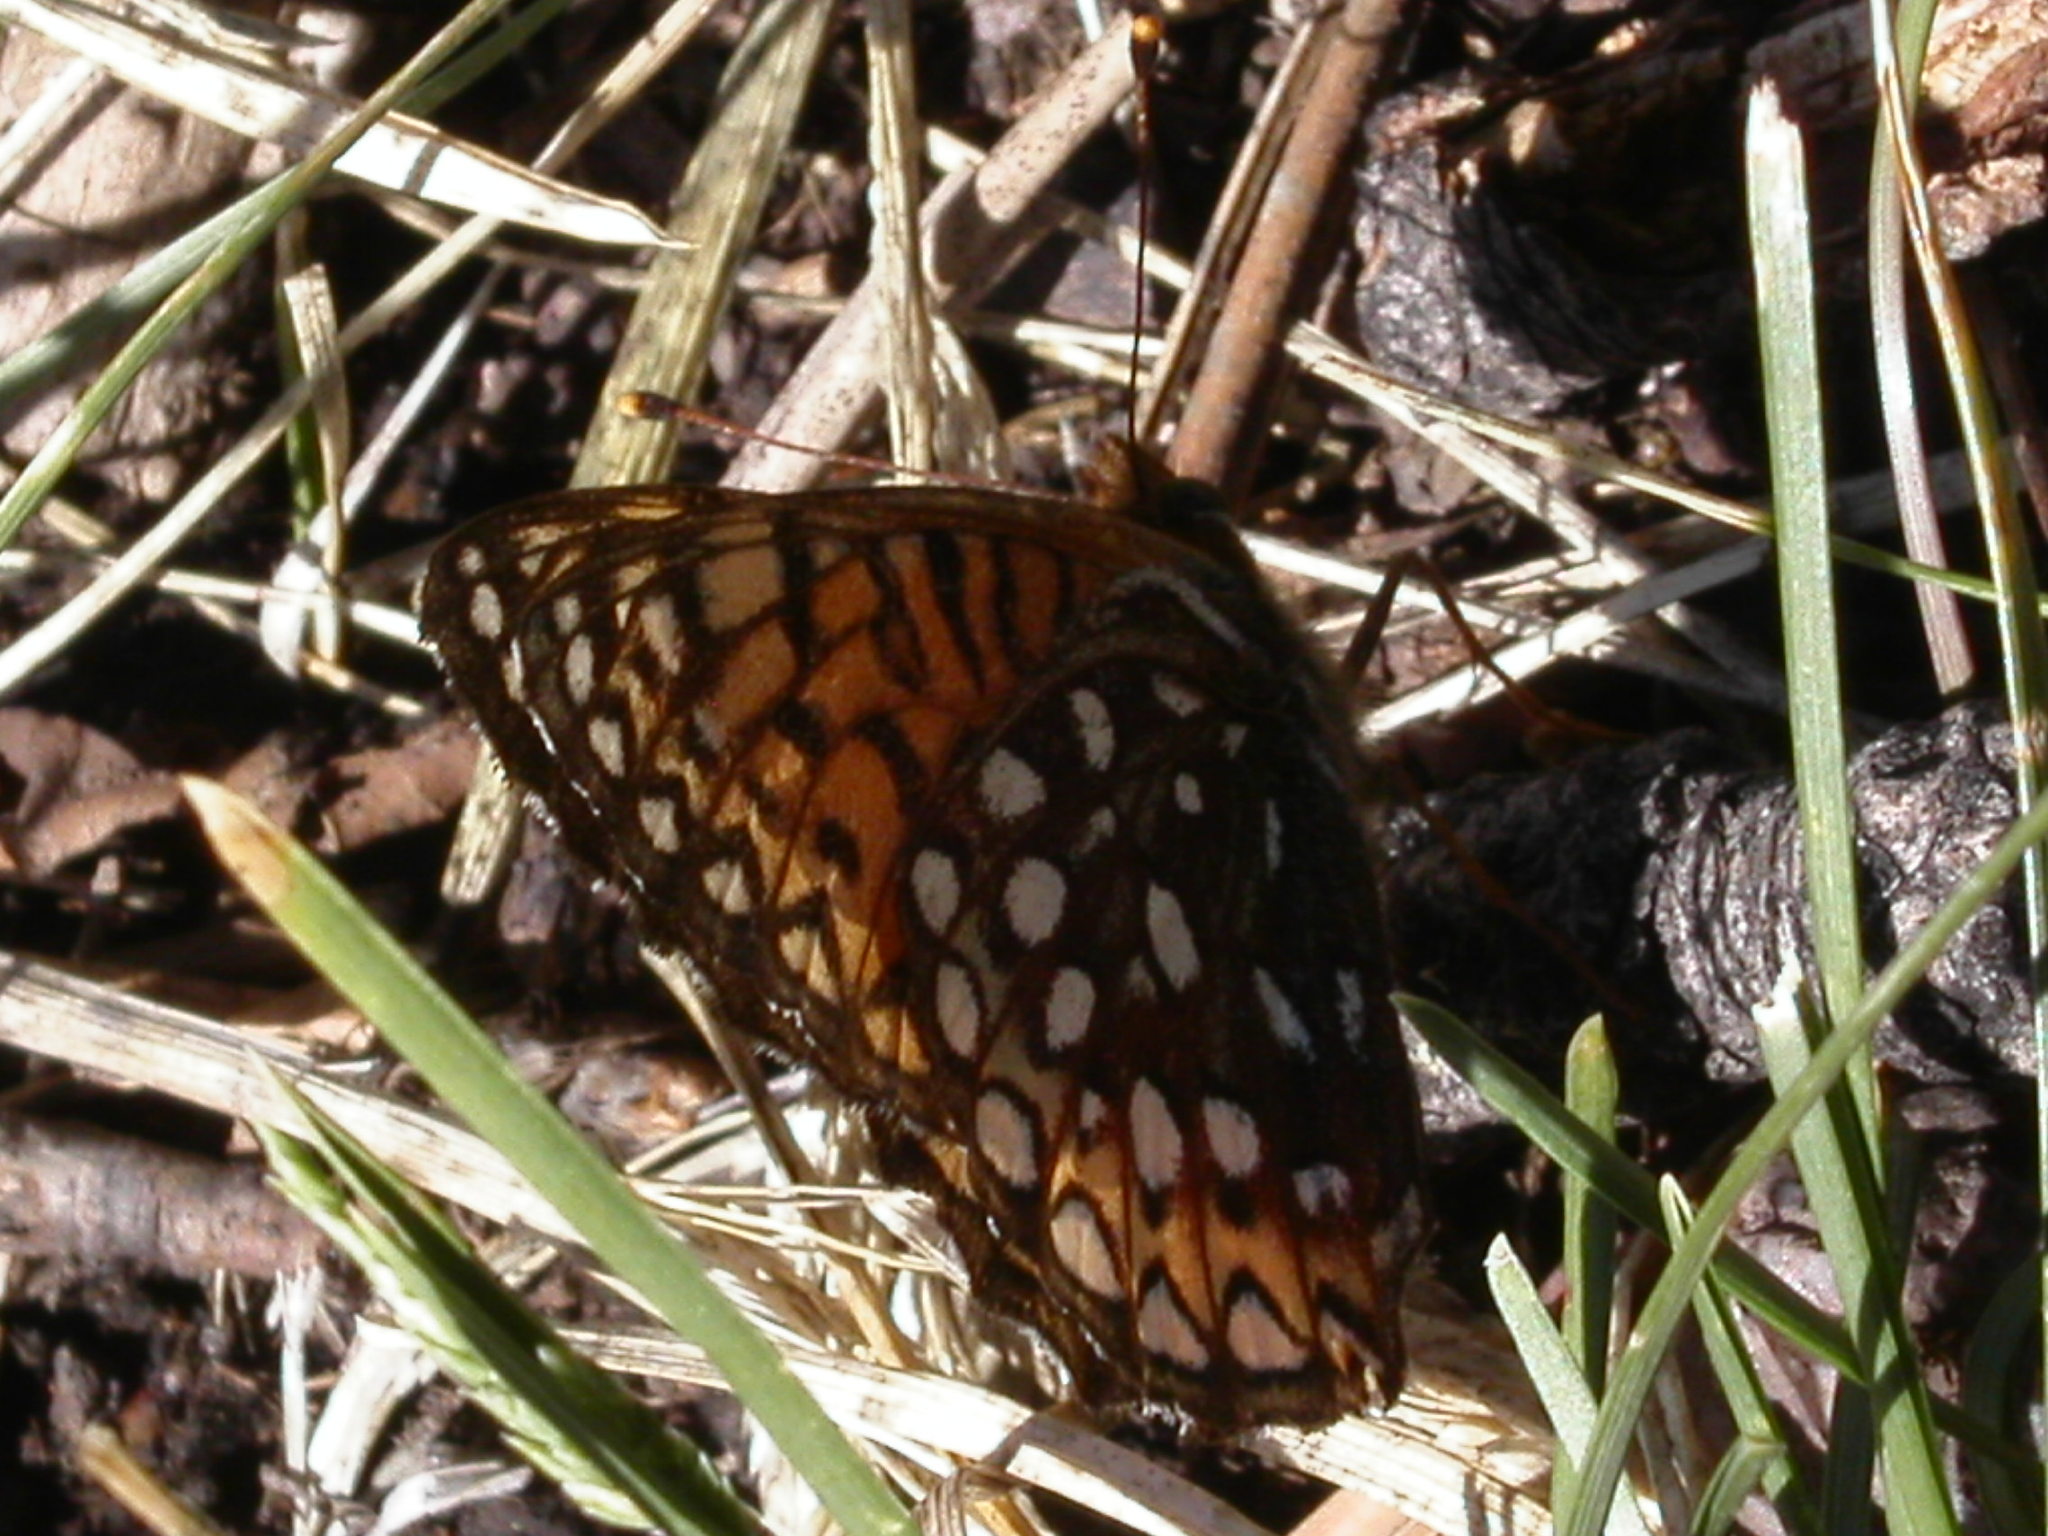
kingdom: Animalia
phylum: Arthropoda
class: Insecta
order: Lepidoptera
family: Nymphalidae
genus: Speyeria
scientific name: Speyeria atlantis
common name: Atlantis fritillary
